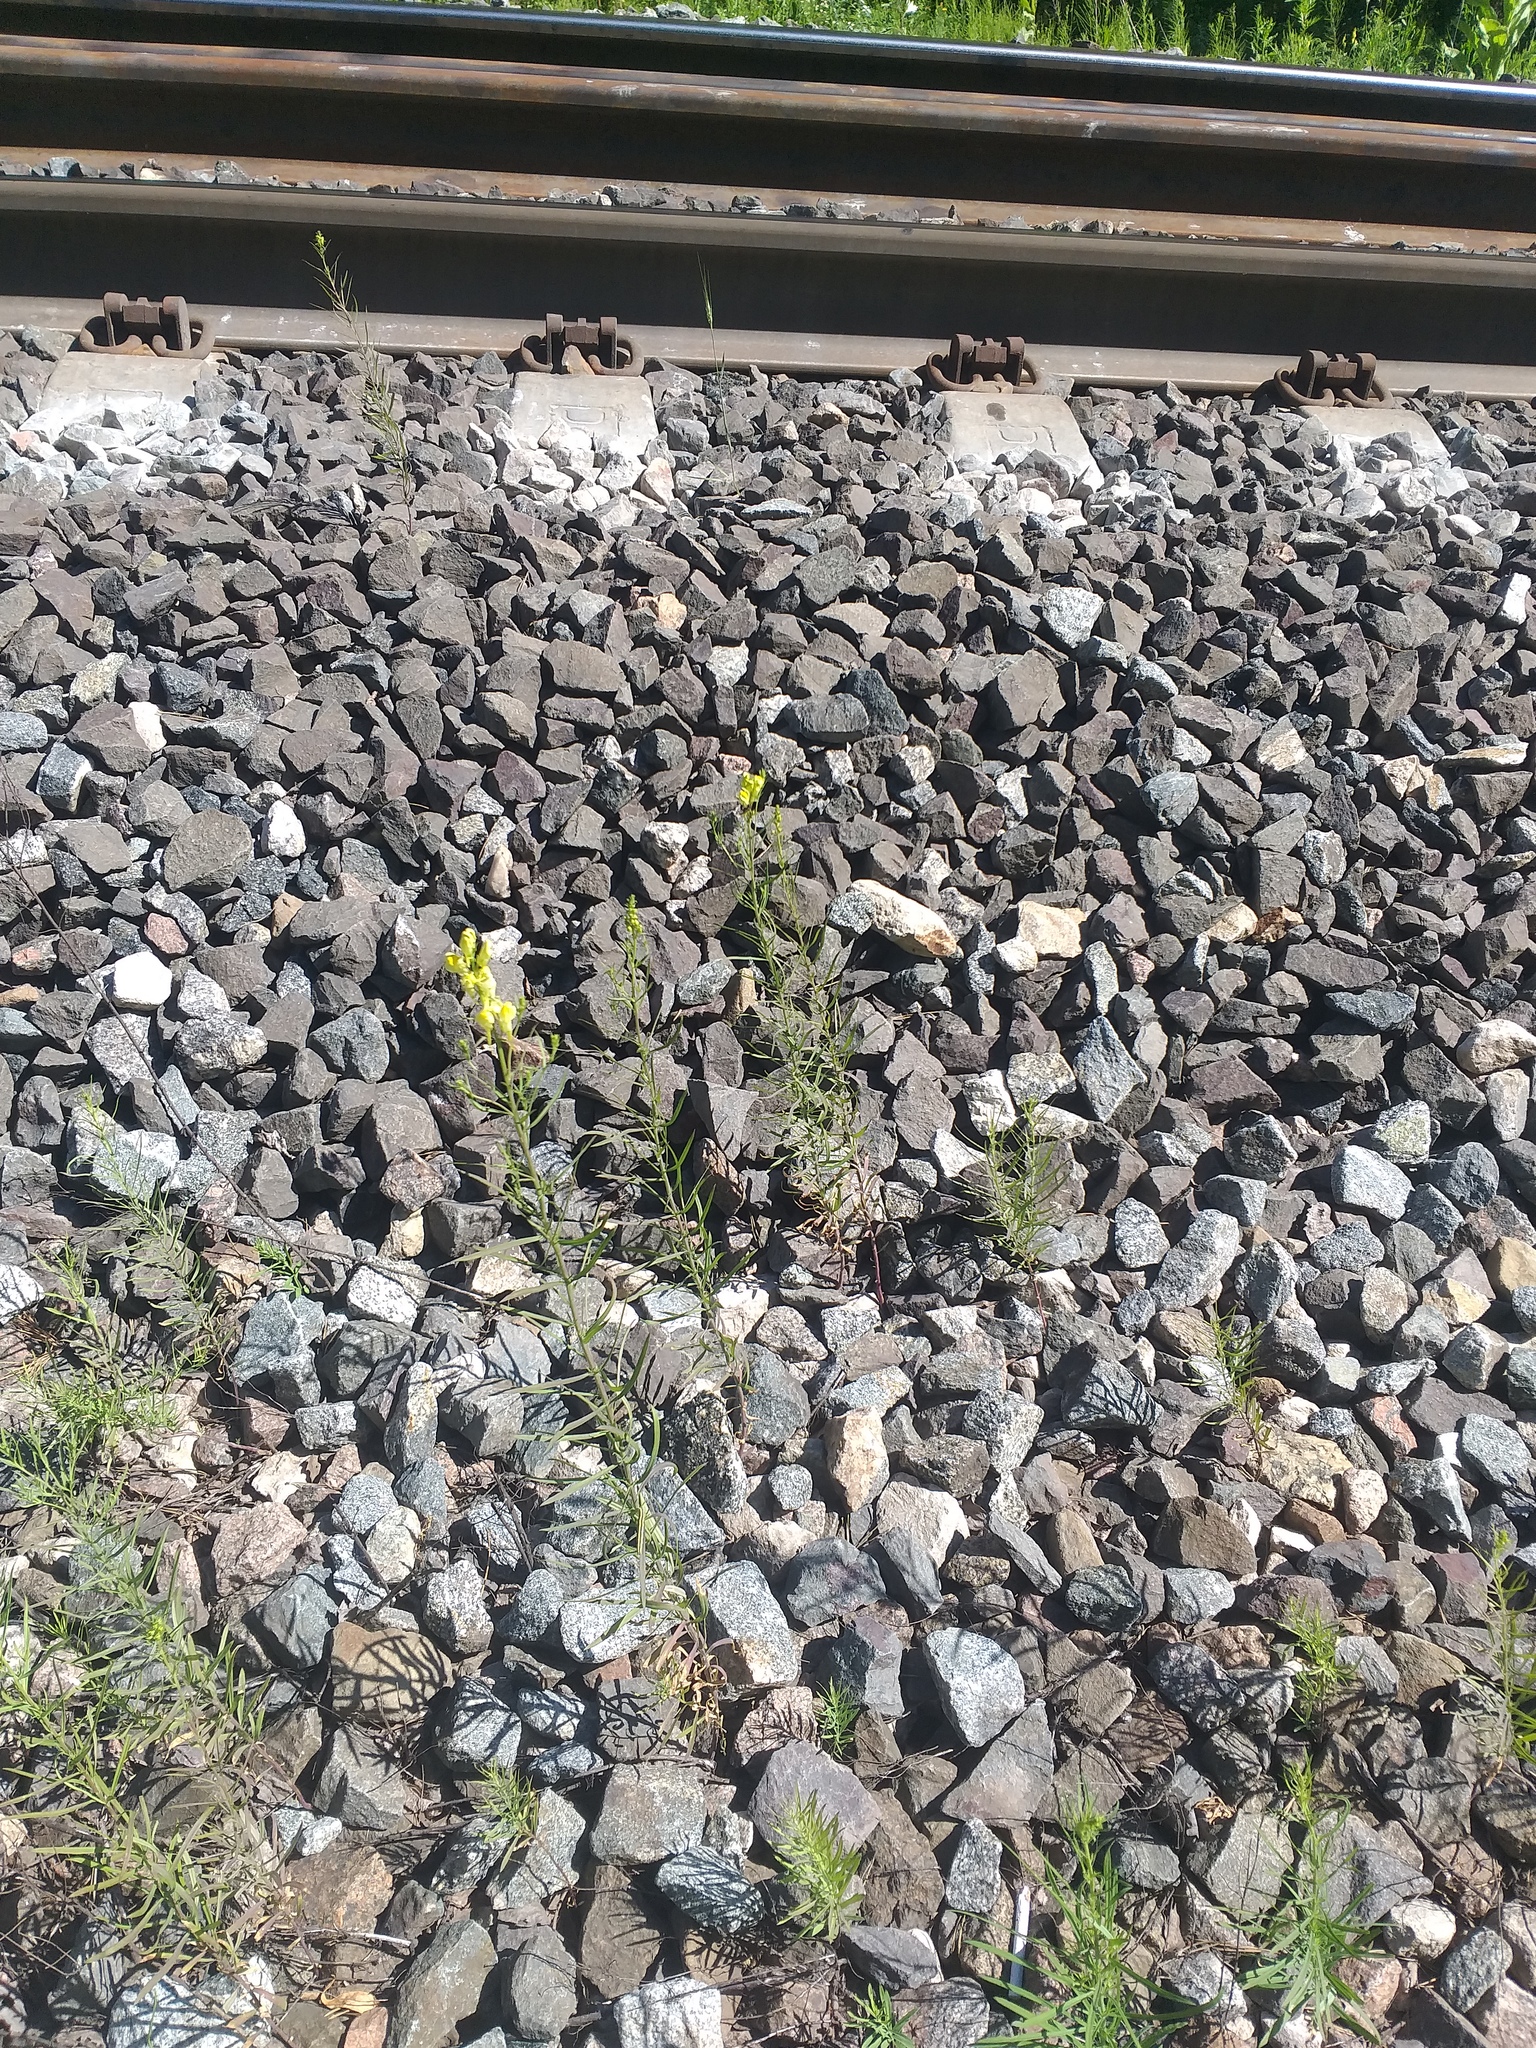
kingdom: Plantae
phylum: Tracheophyta
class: Magnoliopsida
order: Lamiales
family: Plantaginaceae
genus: Linaria
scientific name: Linaria vulgaris
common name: Butter and eggs
